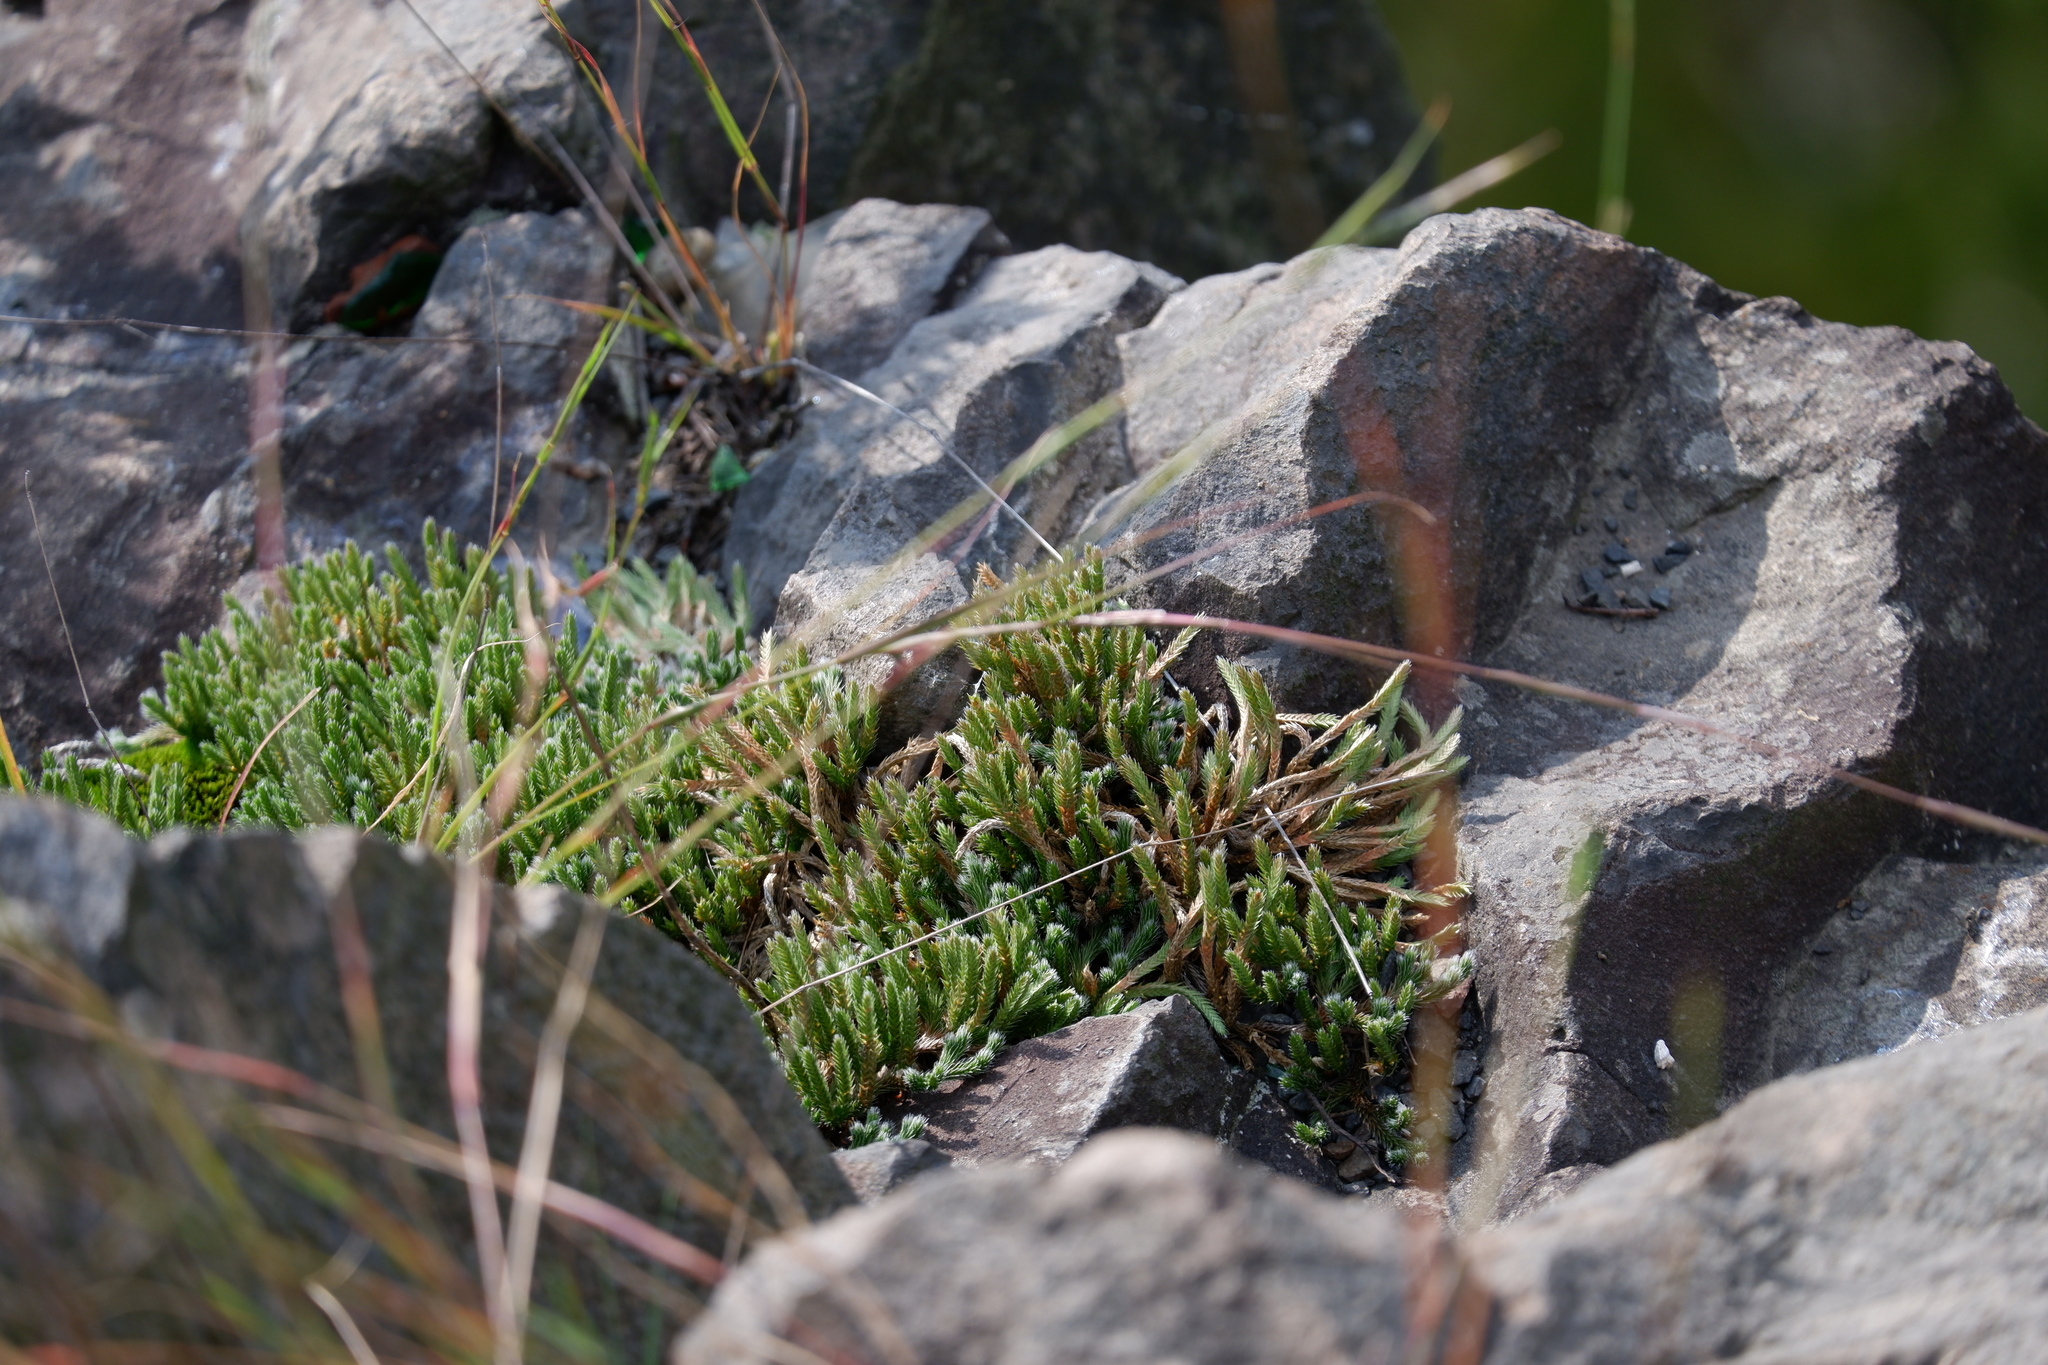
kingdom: Plantae
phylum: Tracheophyta
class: Lycopodiopsida
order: Selaginellales
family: Selaginellaceae
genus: Selaginella
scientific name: Selaginella rupestris
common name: Dwarf spikemoss
